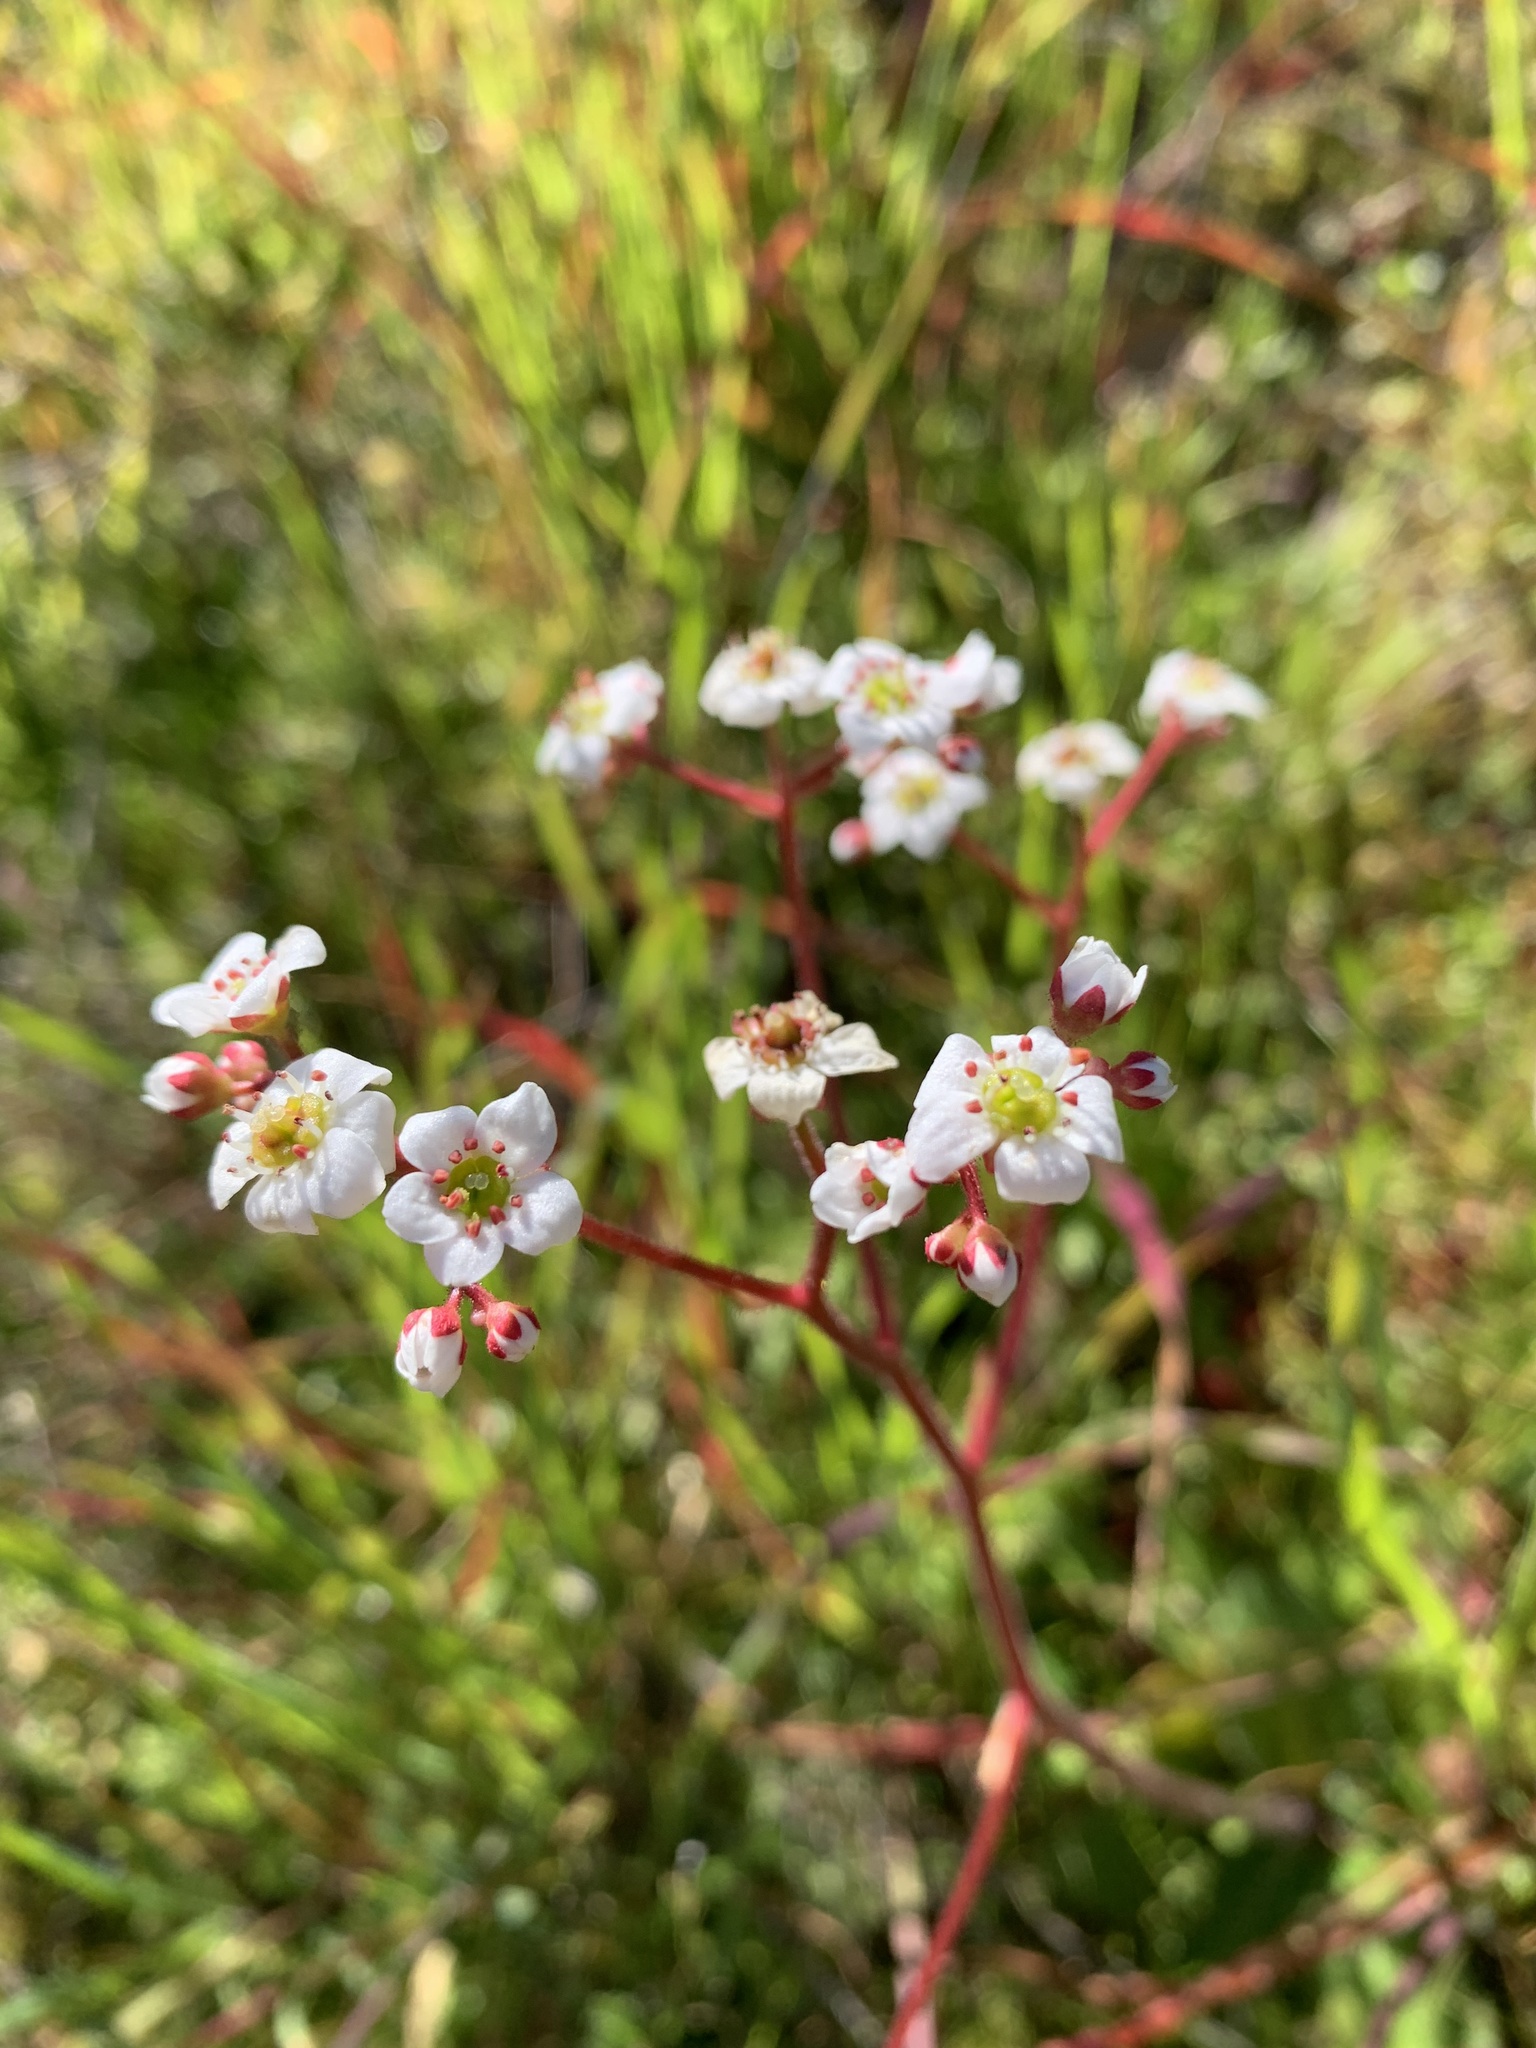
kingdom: Plantae
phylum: Tracheophyta
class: Magnoliopsida
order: Saxifragales
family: Saxifragaceae
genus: Micranthes
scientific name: Micranthes californica
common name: California saxifrage
